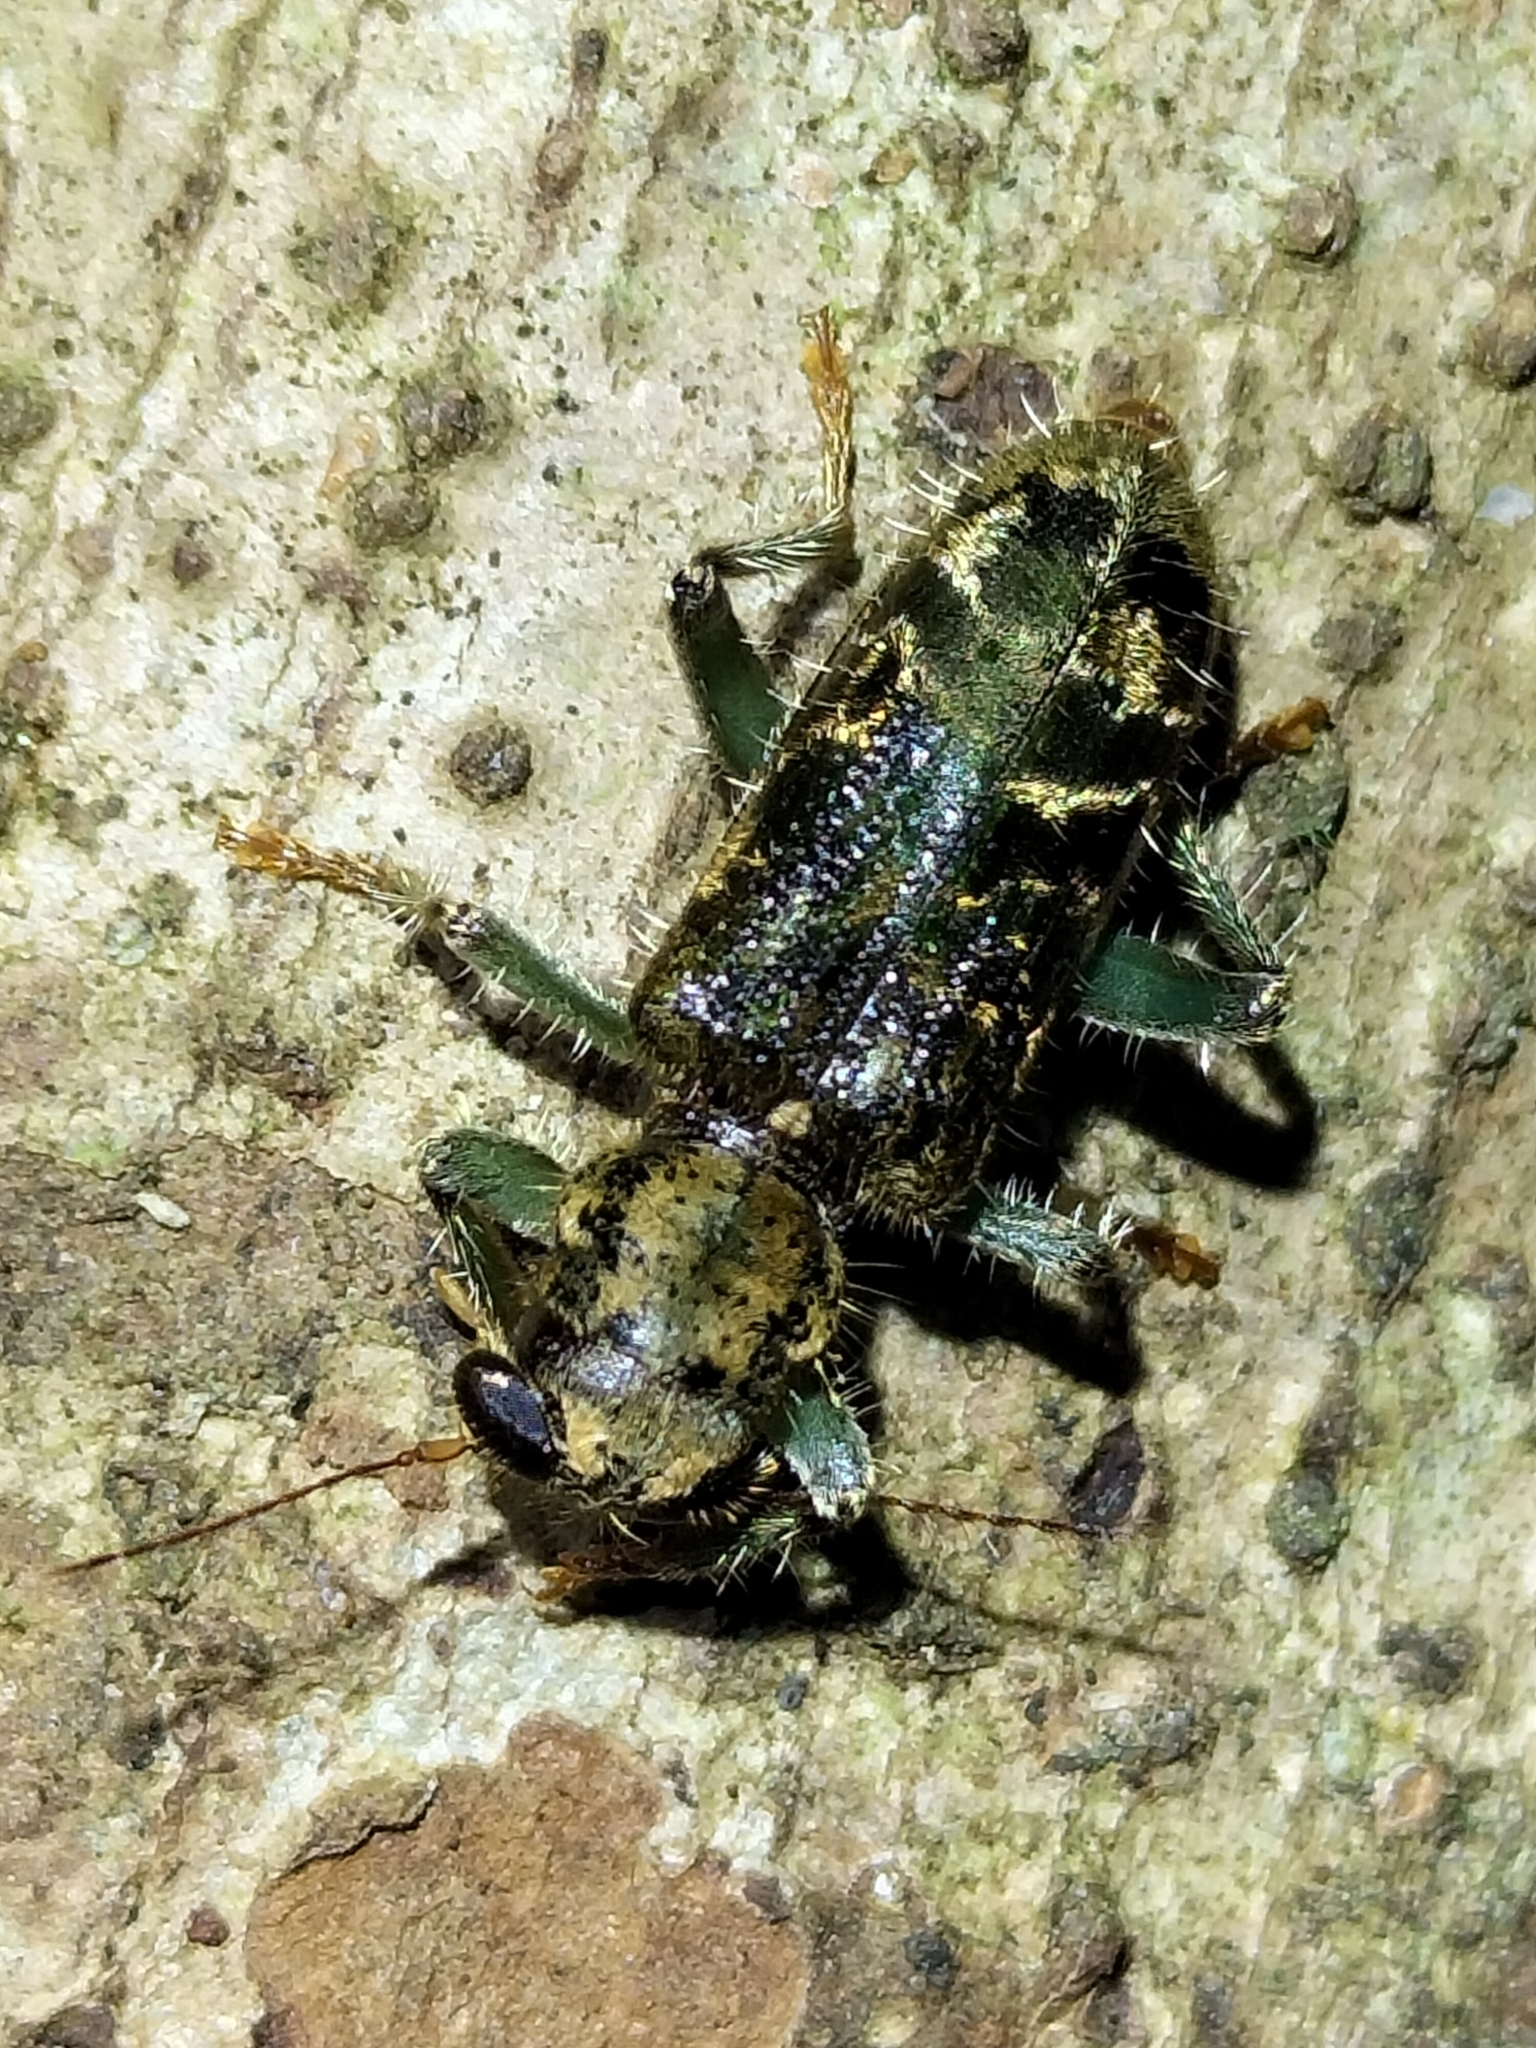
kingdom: Animalia
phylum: Arthropoda
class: Insecta
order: Coleoptera
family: Cleridae
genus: Stigmatium
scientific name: Stigmatium
